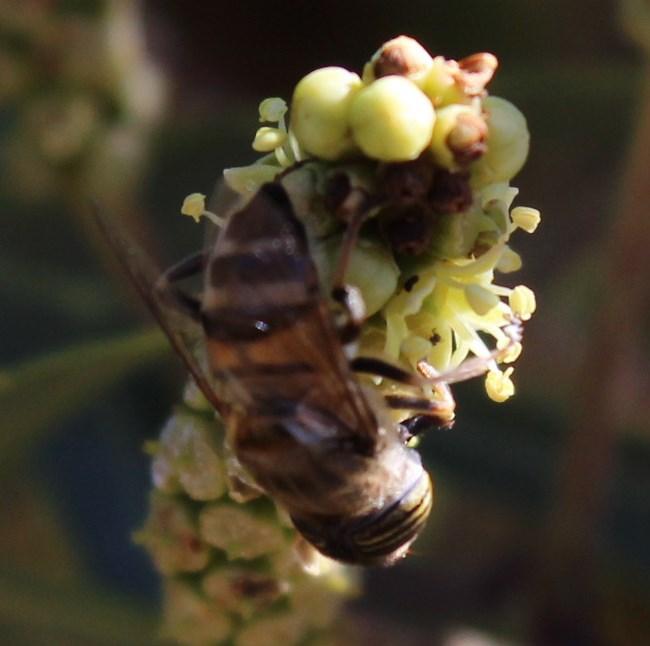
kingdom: Animalia
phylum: Arthropoda
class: Insecta
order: Diptera
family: Syrphidae
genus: Eristalinus
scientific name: Eristalinus taeniops
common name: Syrphid fly
